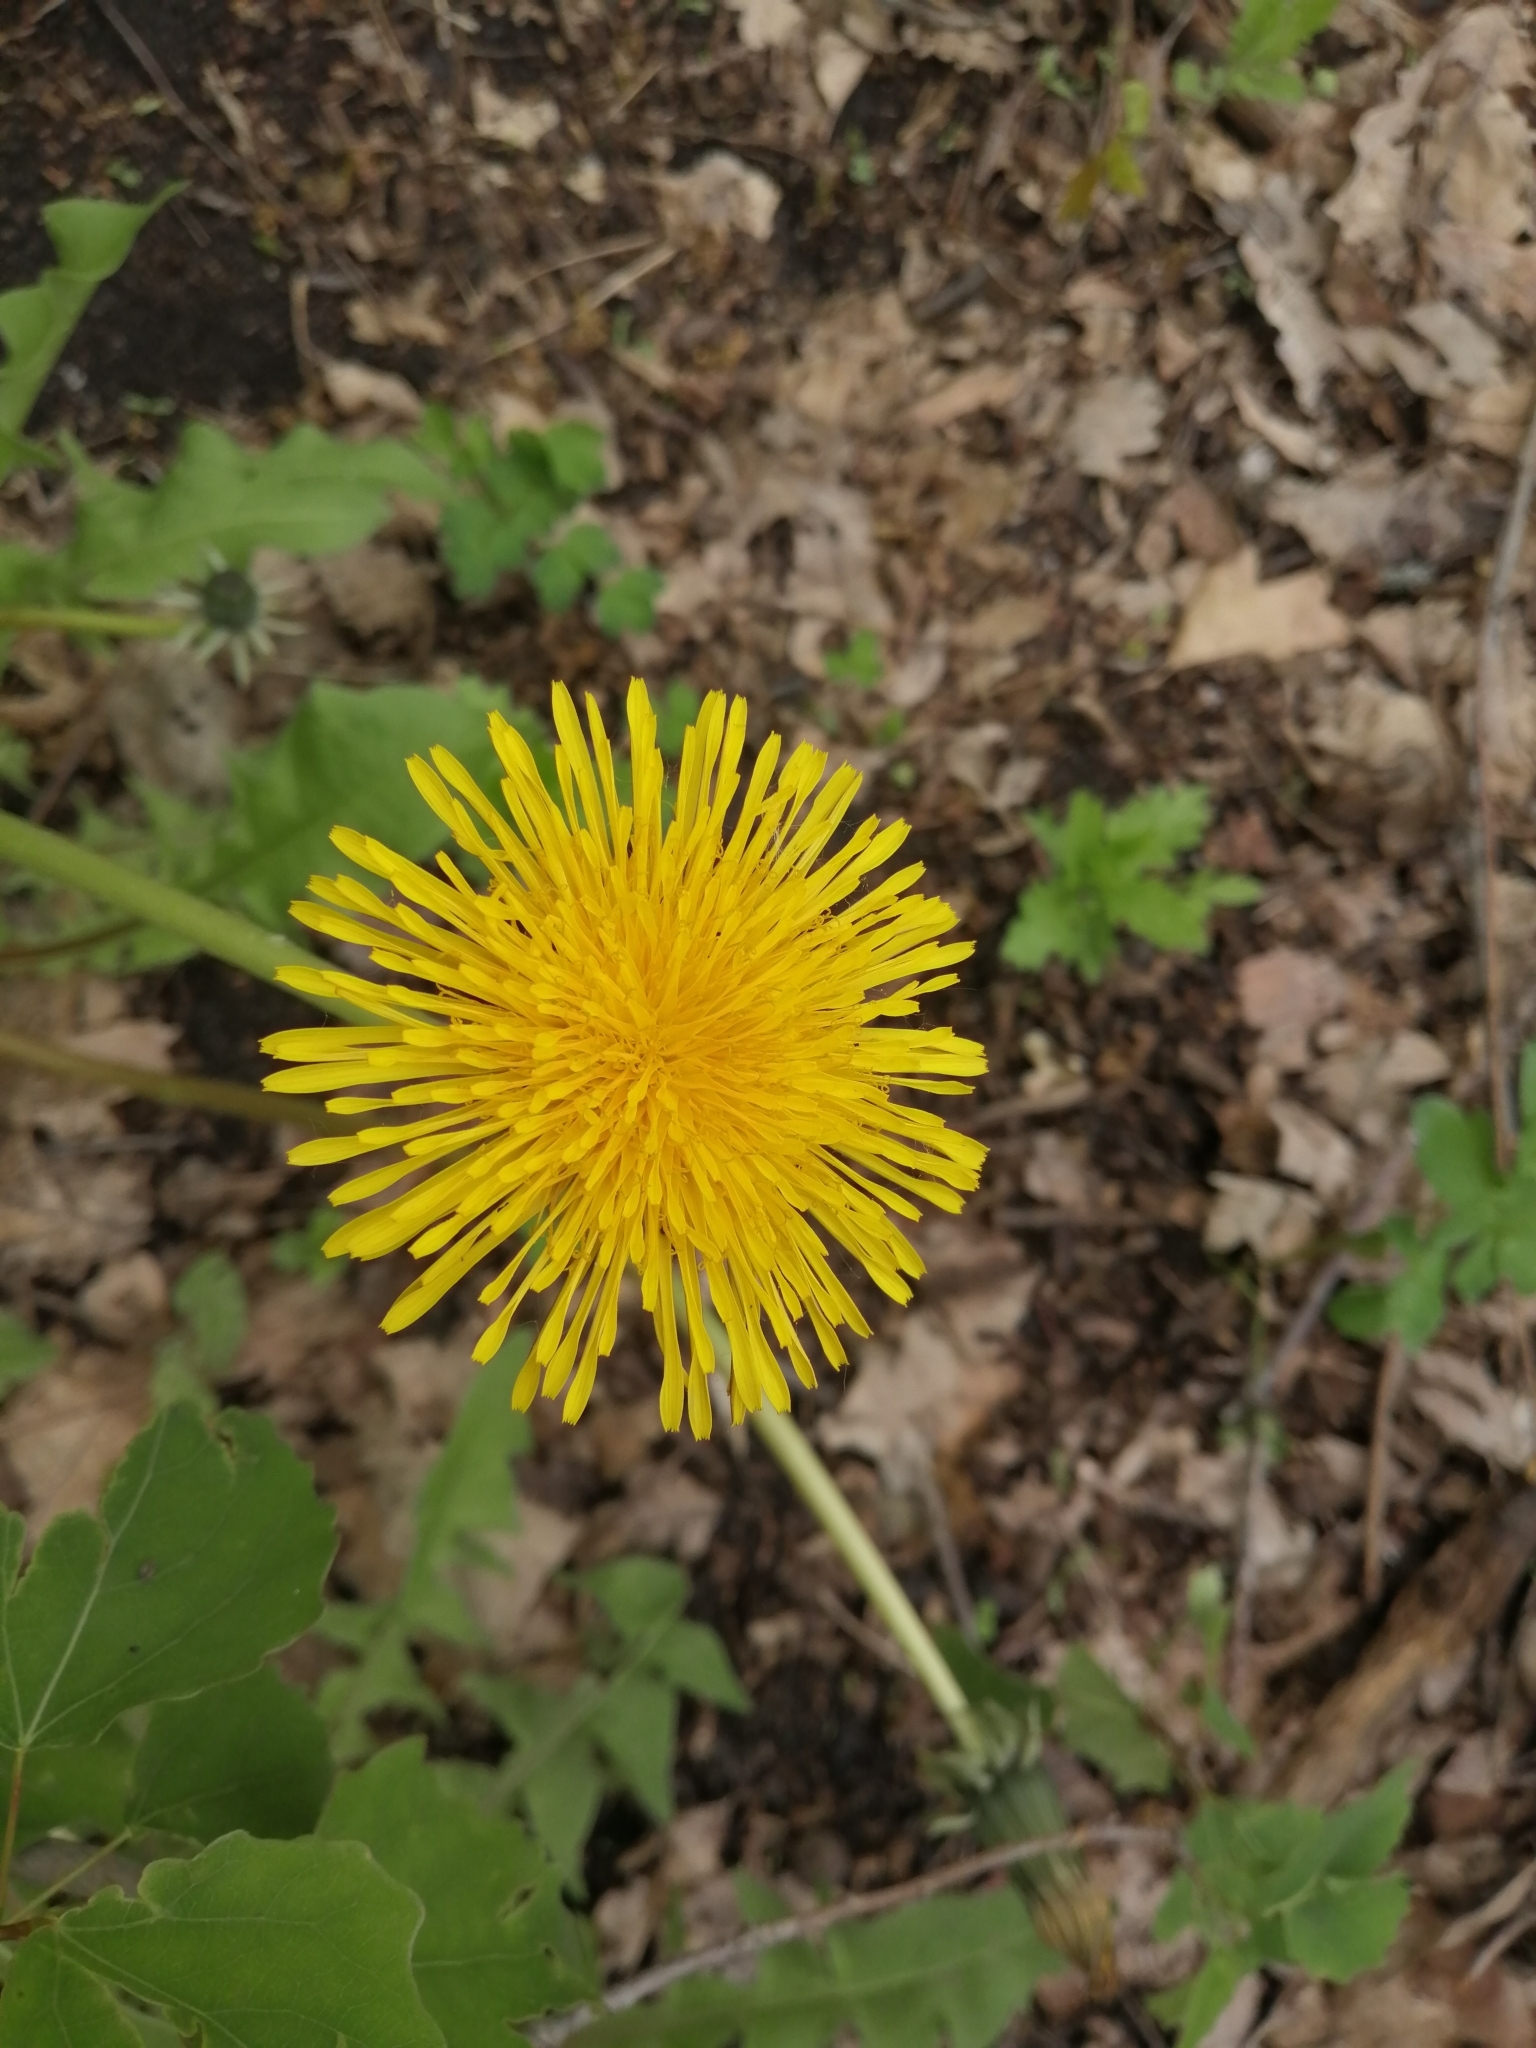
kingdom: Plantae
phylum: Tracheophyta
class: Magnoliopsida
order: Asterales
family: Asteraceae
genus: Taraxacum
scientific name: Taraxacum officinale
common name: Common dandelion
